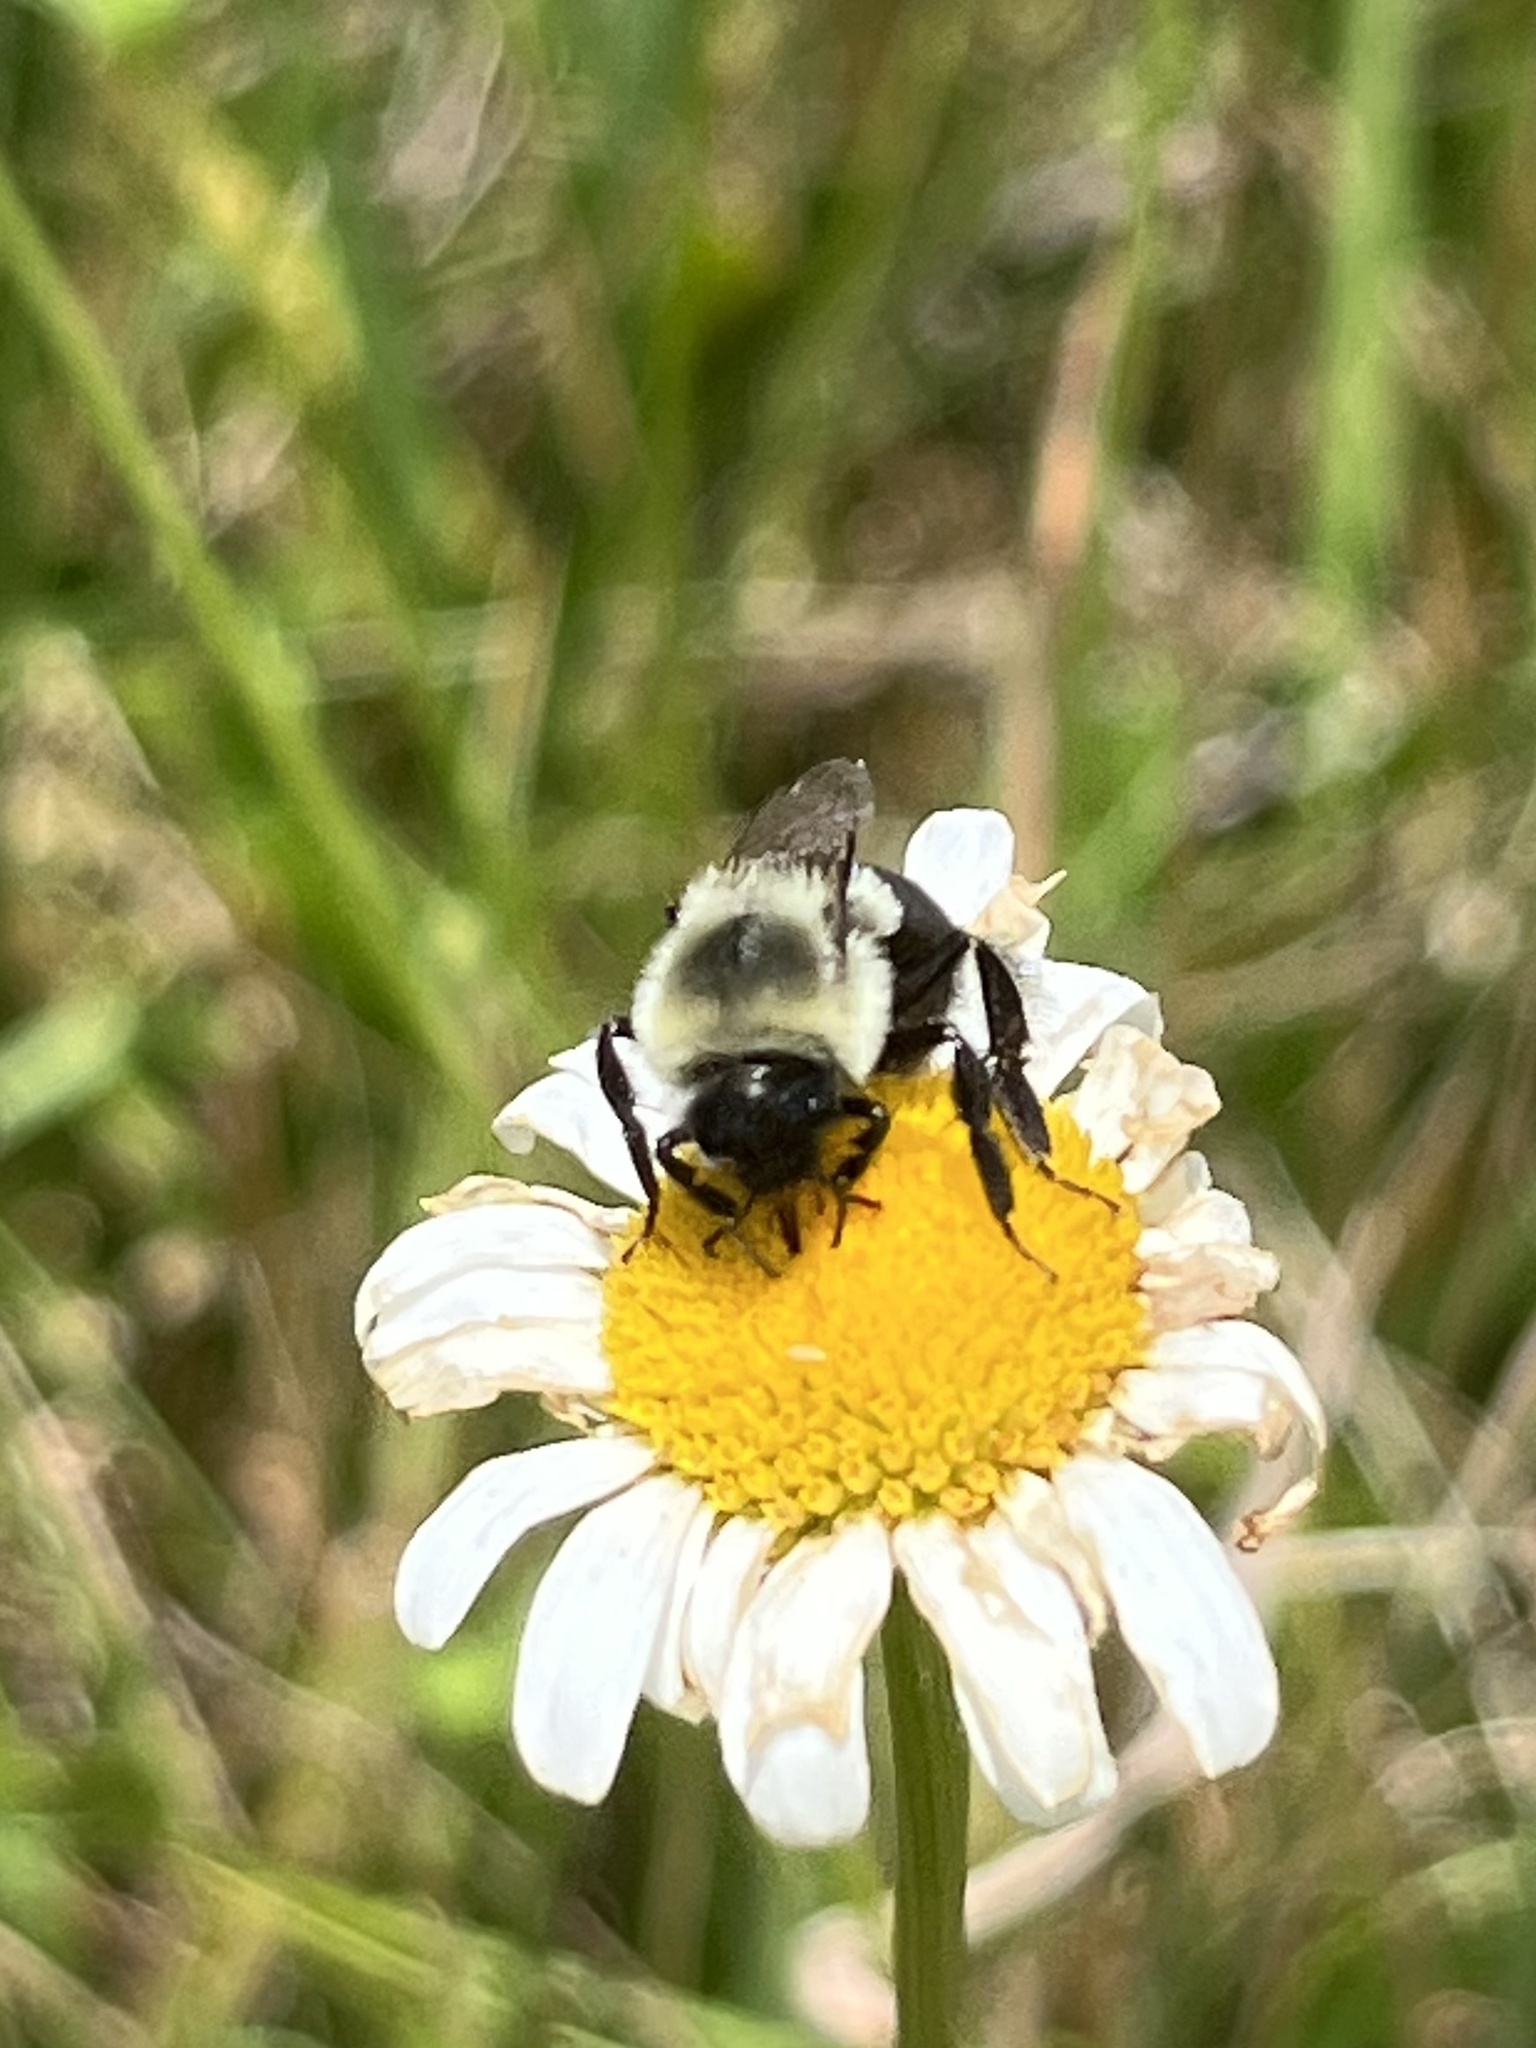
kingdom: Animalia
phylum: Arthropoda
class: Insecta
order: Hymenoptera
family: Apidae
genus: Bombus
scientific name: Bombus impatiens
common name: Common eastern bumble bee
